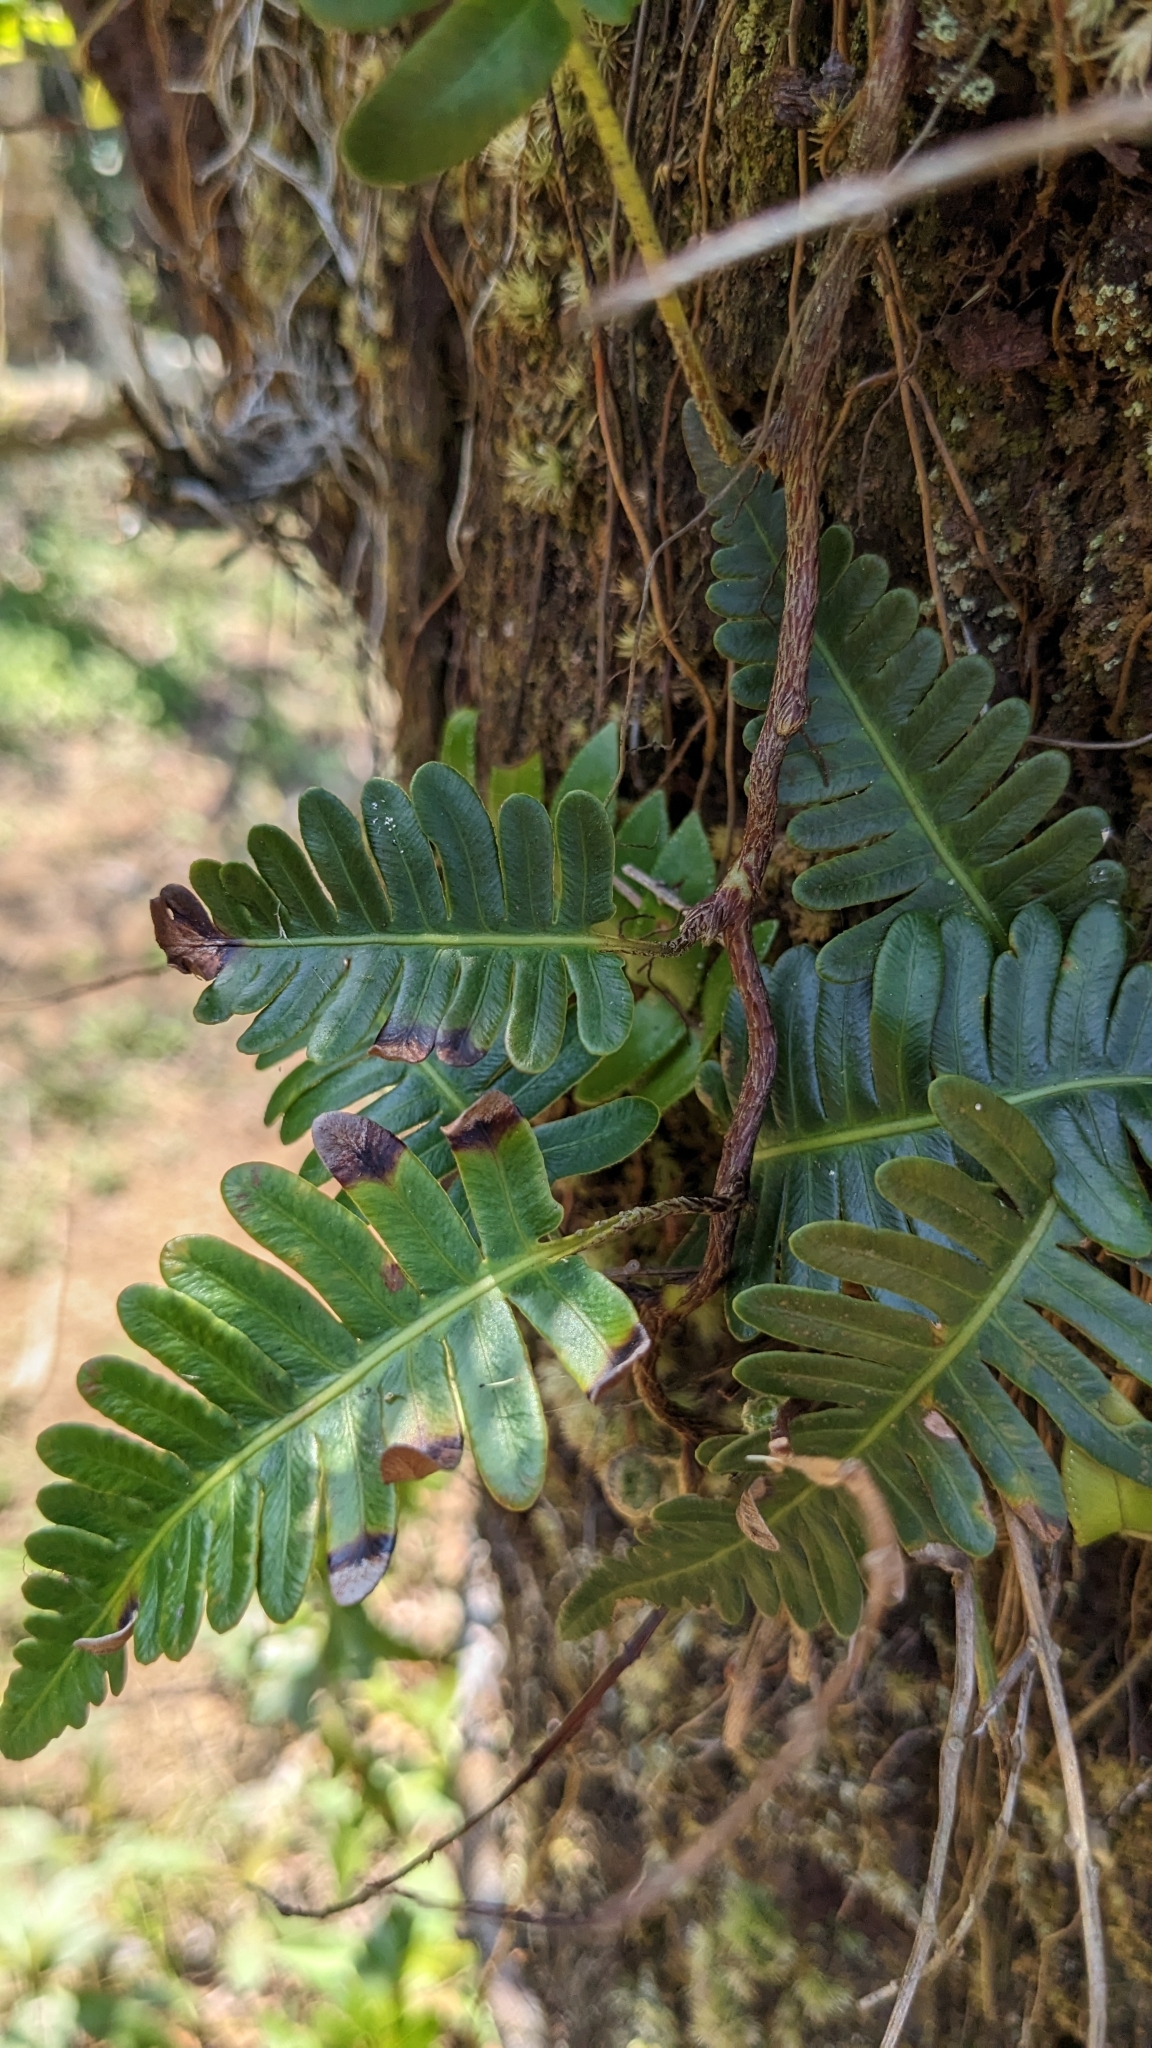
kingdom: Plantae
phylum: Tracheophyta
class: Polypodiopsida
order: Polypodiales
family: Davalliaceae
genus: Davallia
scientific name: Davallia pectinata
